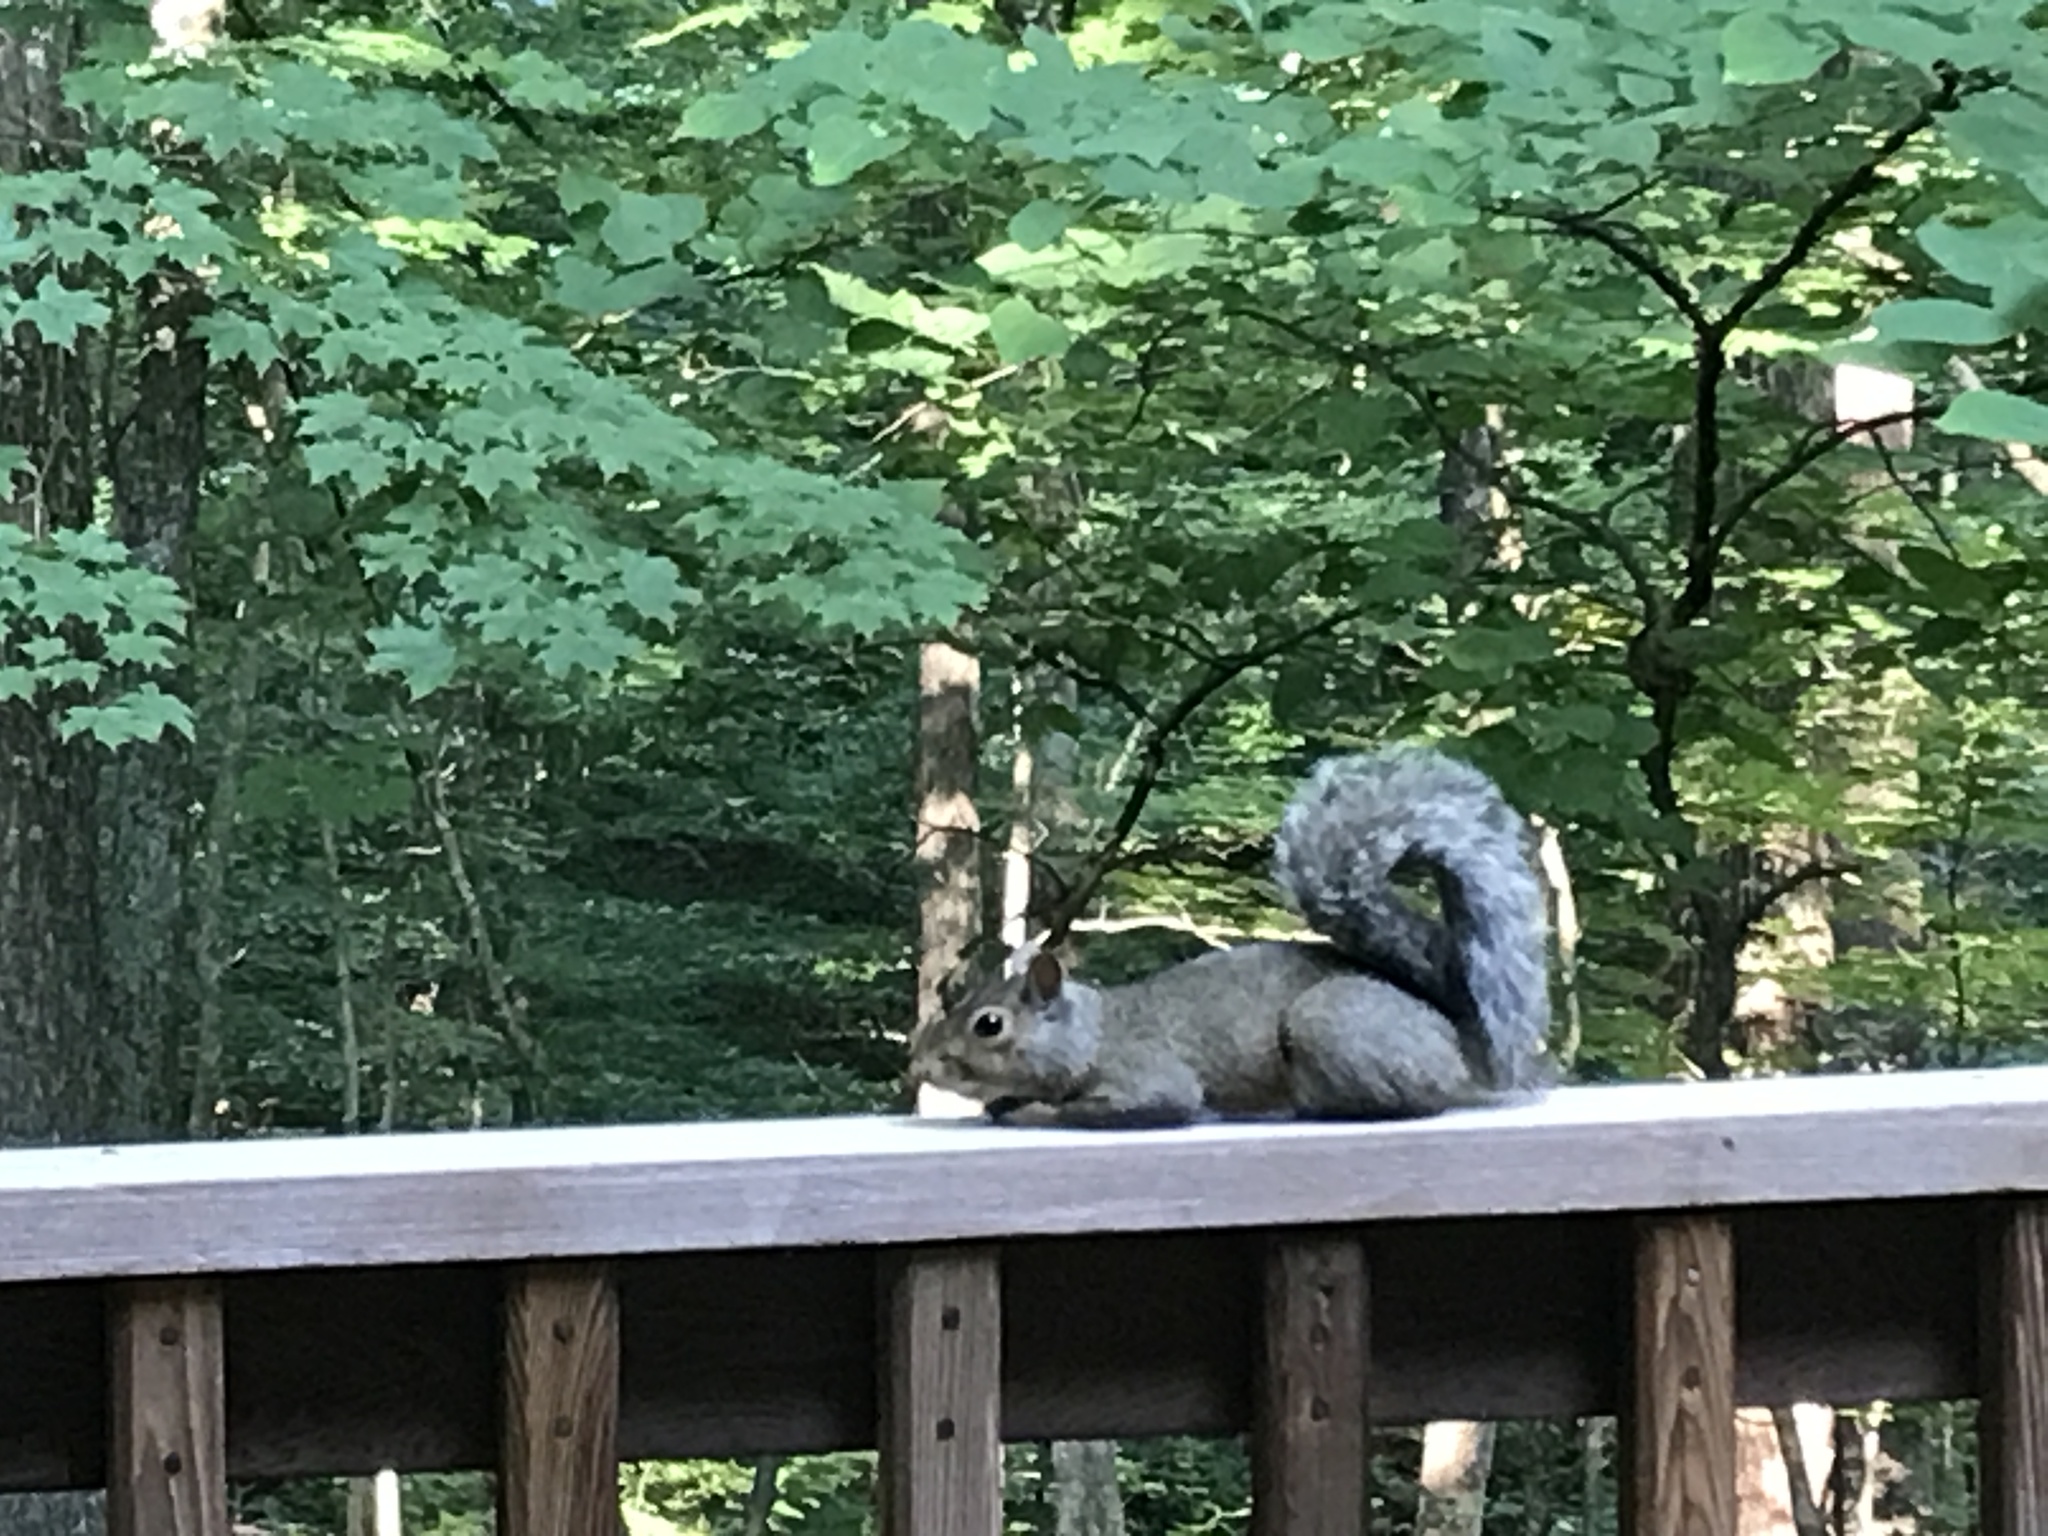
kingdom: Animalia
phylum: Chordata
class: Mammalia
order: Rodentia
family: Sciuridae
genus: Sciurus
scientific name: Sciurus carolinensis
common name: Eastern gray squirrel
